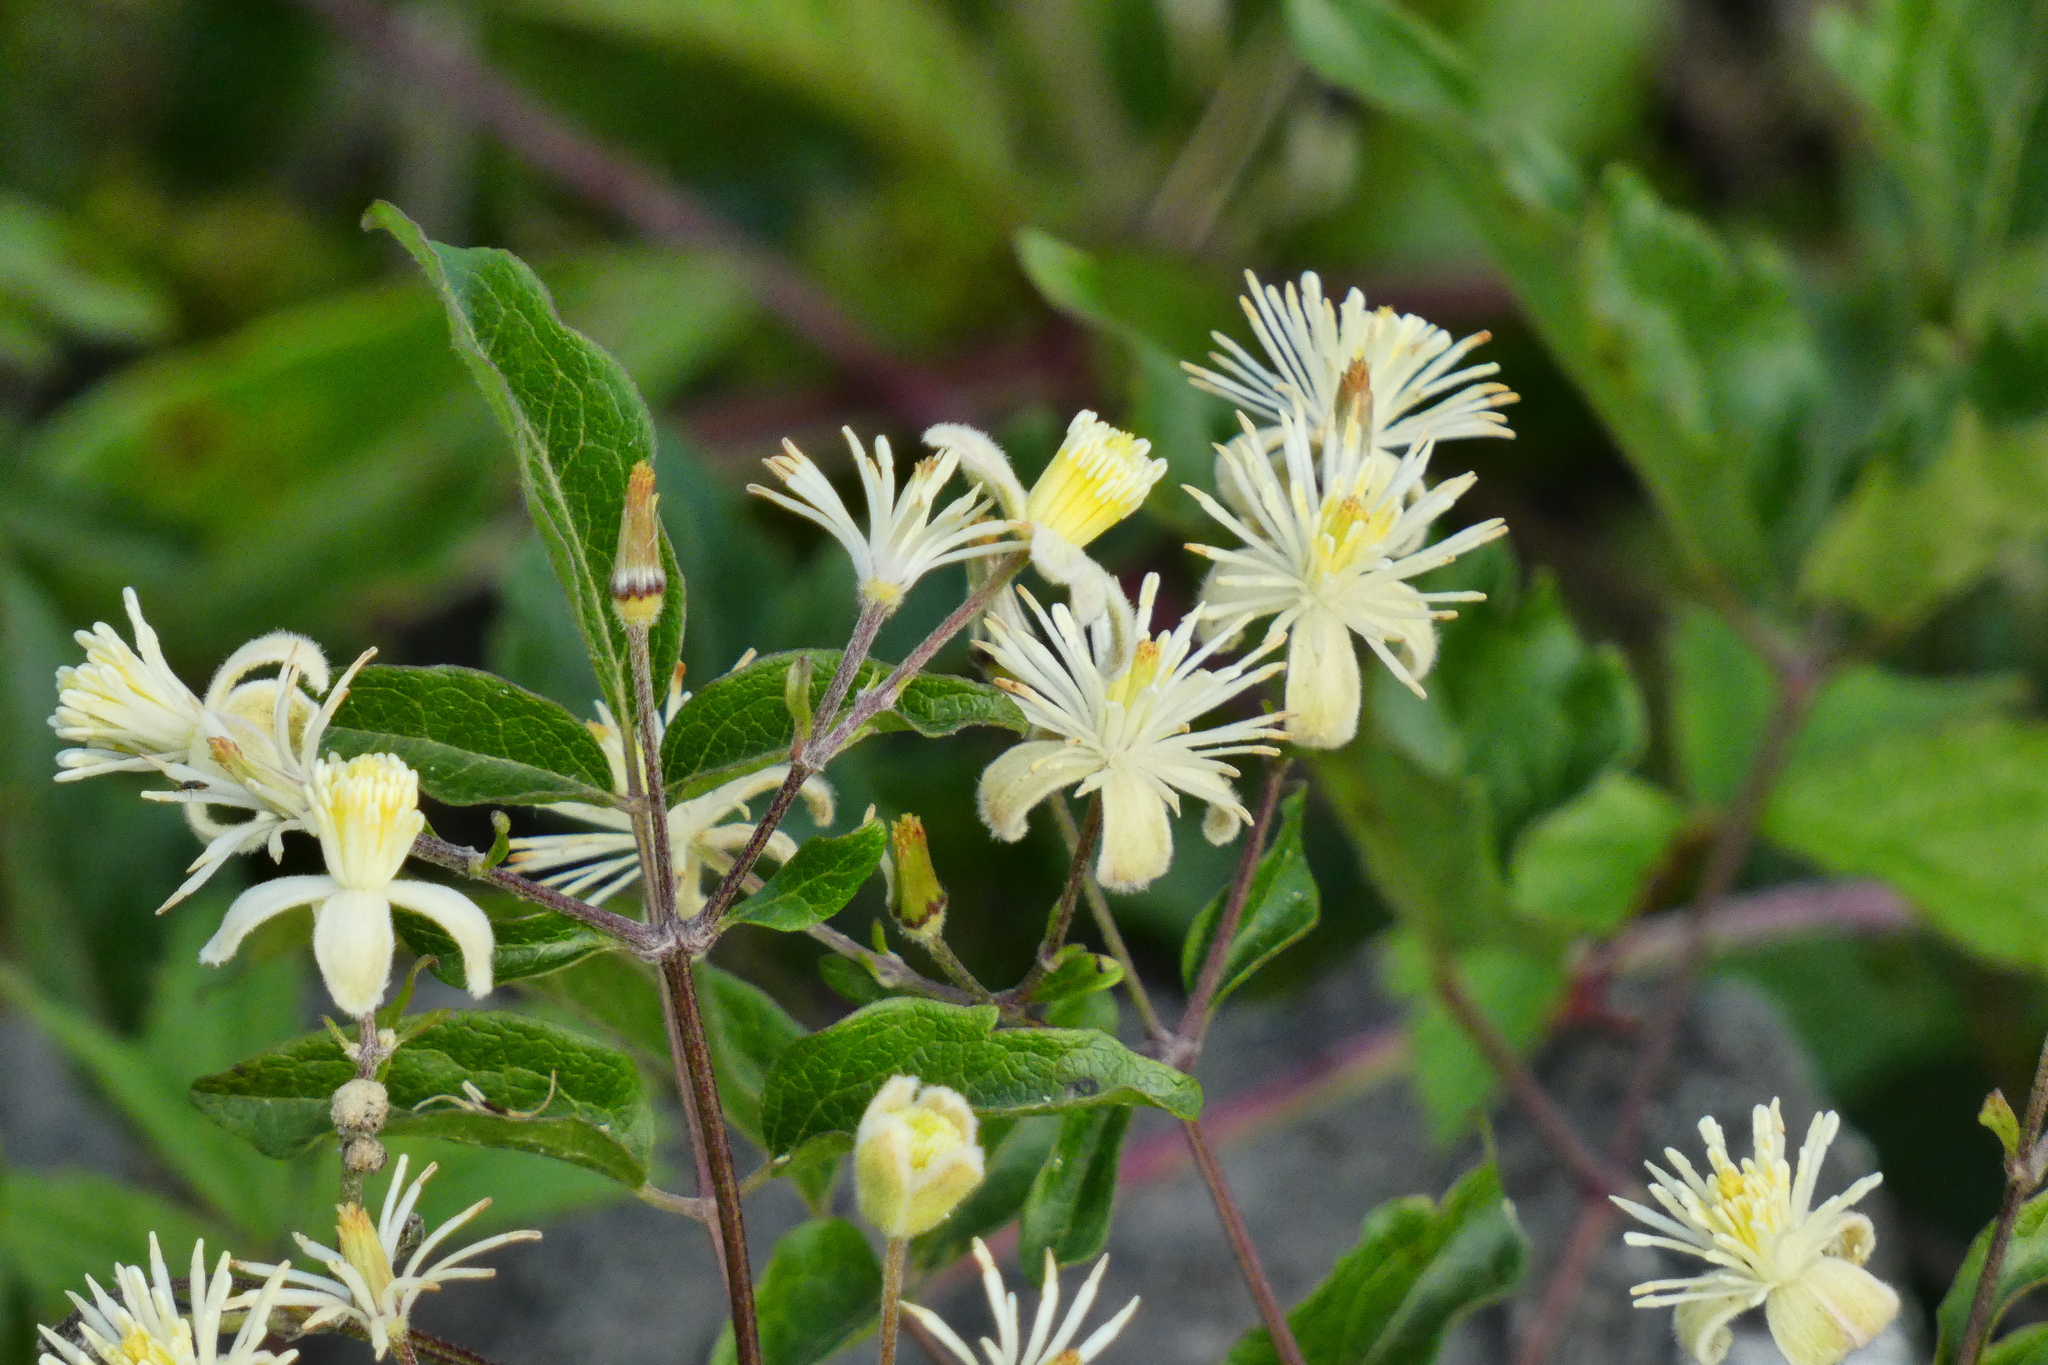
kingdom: Plantae
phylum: Tracheophyta
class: Magnoliopsida
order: Ranunculales
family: Ranunculaceae
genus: Clematis
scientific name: Clematis vitalba
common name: Evergreen clematis
